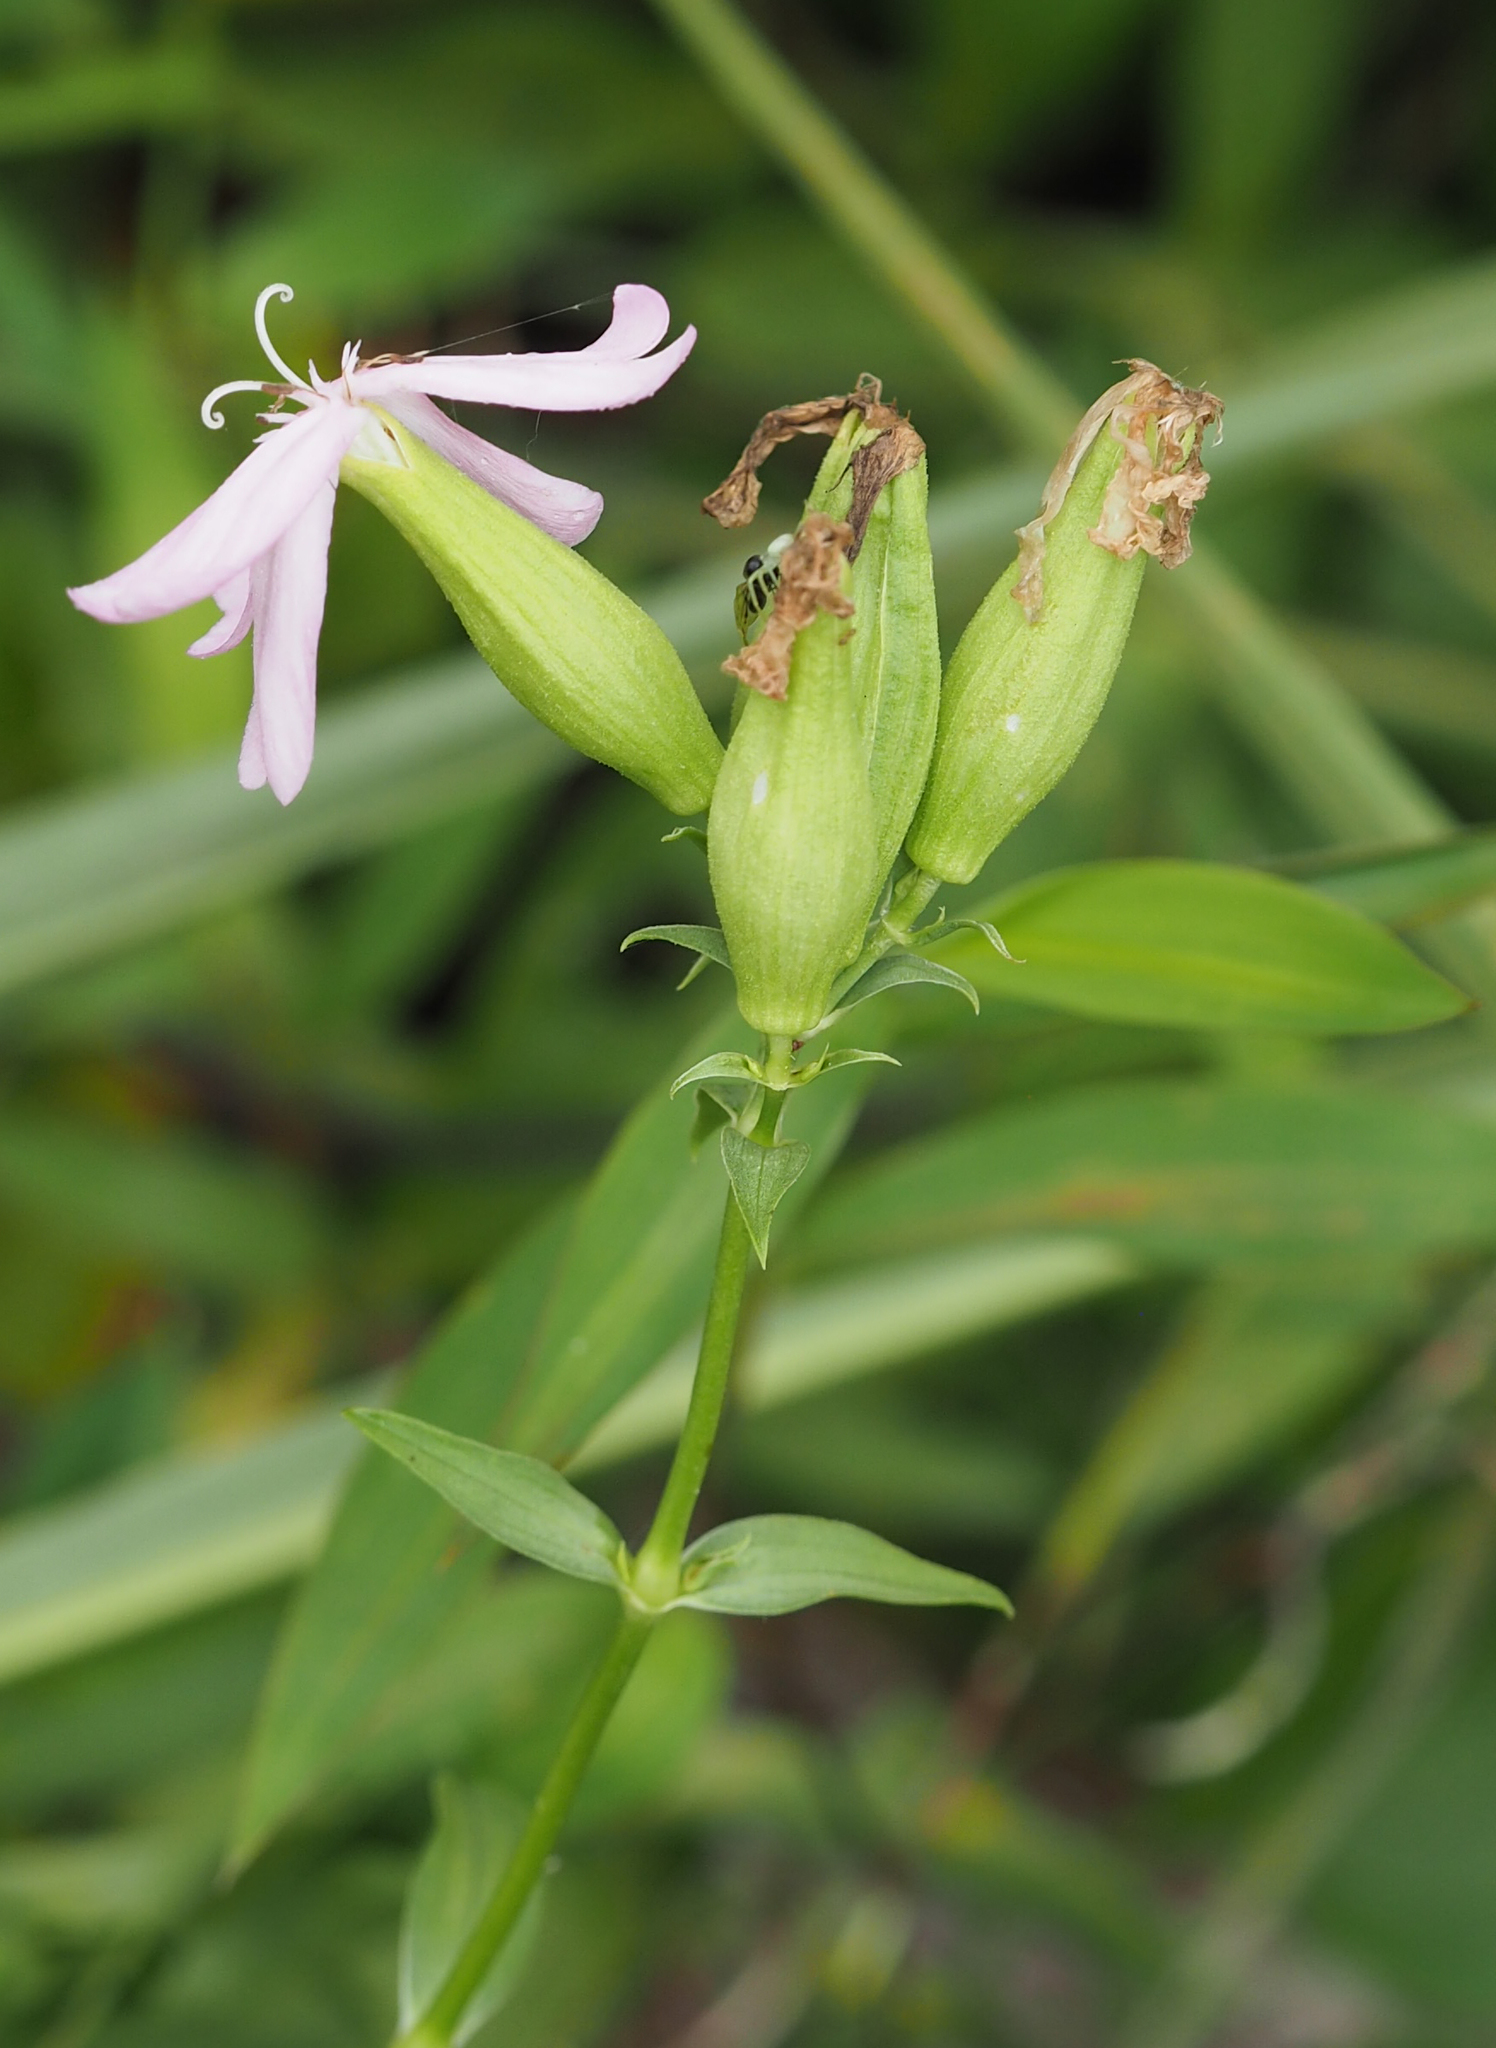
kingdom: Plantae
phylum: Tracheophyta
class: Magnoliopsida
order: Caryophyllales
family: Caryophyllaceae
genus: Saponaria
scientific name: Saponaria officinalis
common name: Soapwort
